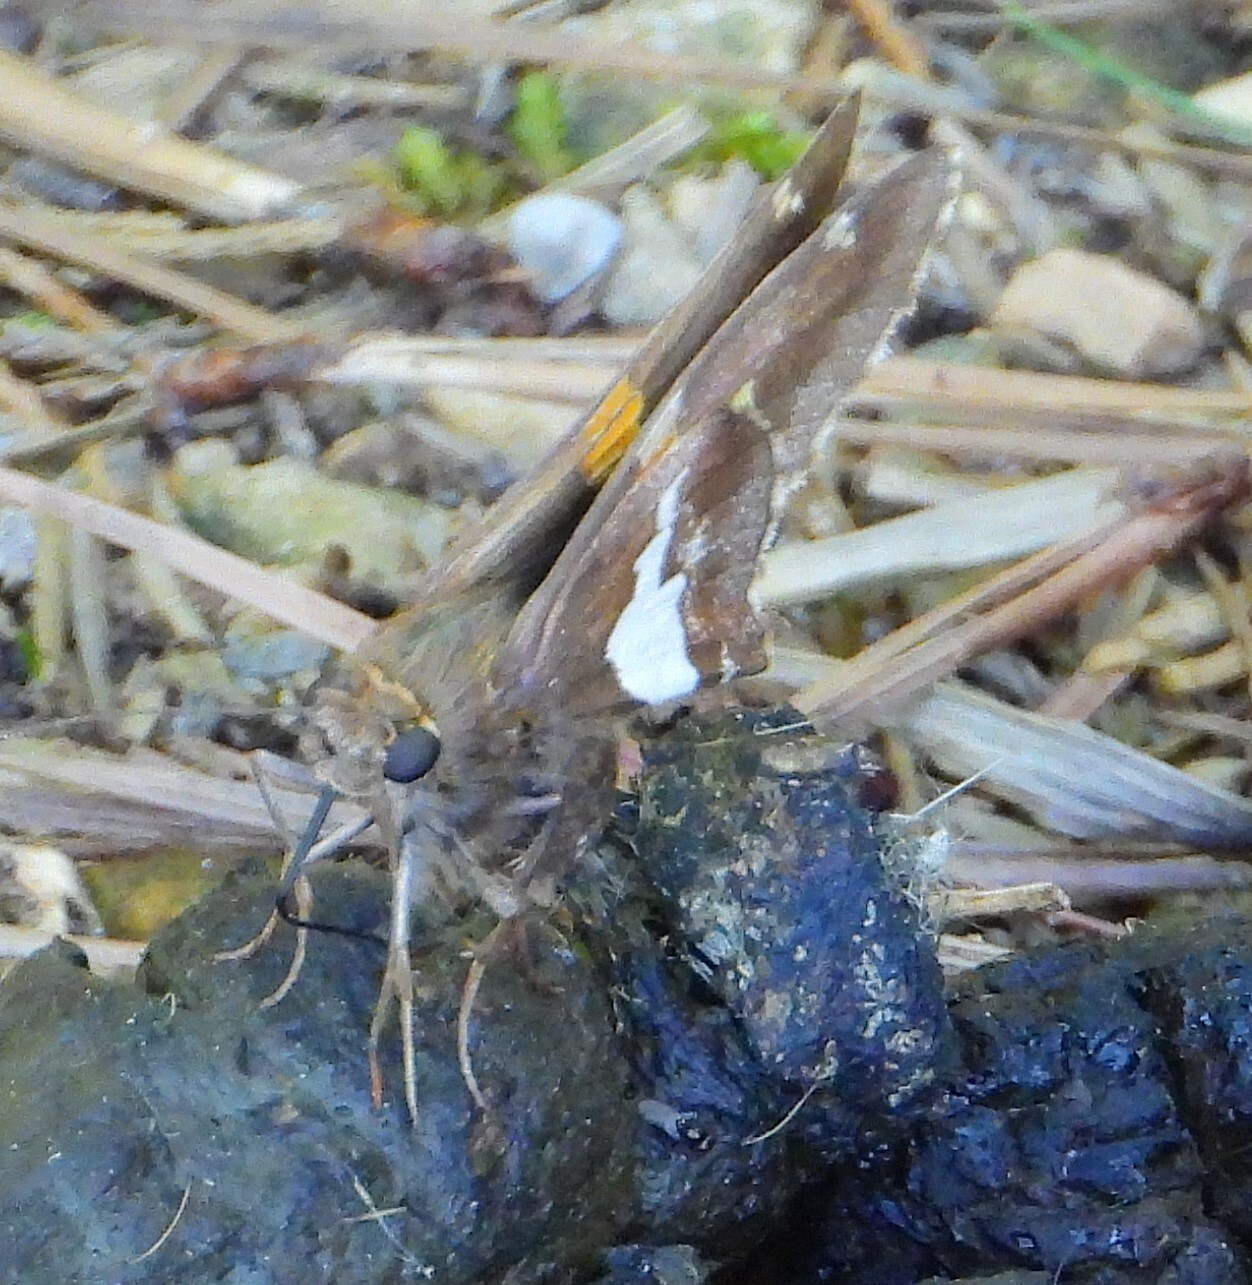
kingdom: Animalia
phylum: Arthropoda
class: Insecta
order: Lepidoptera
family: Hesperiidae
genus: Epargyreus
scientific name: Epargyreus clarus
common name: Silver-spotted skipper
